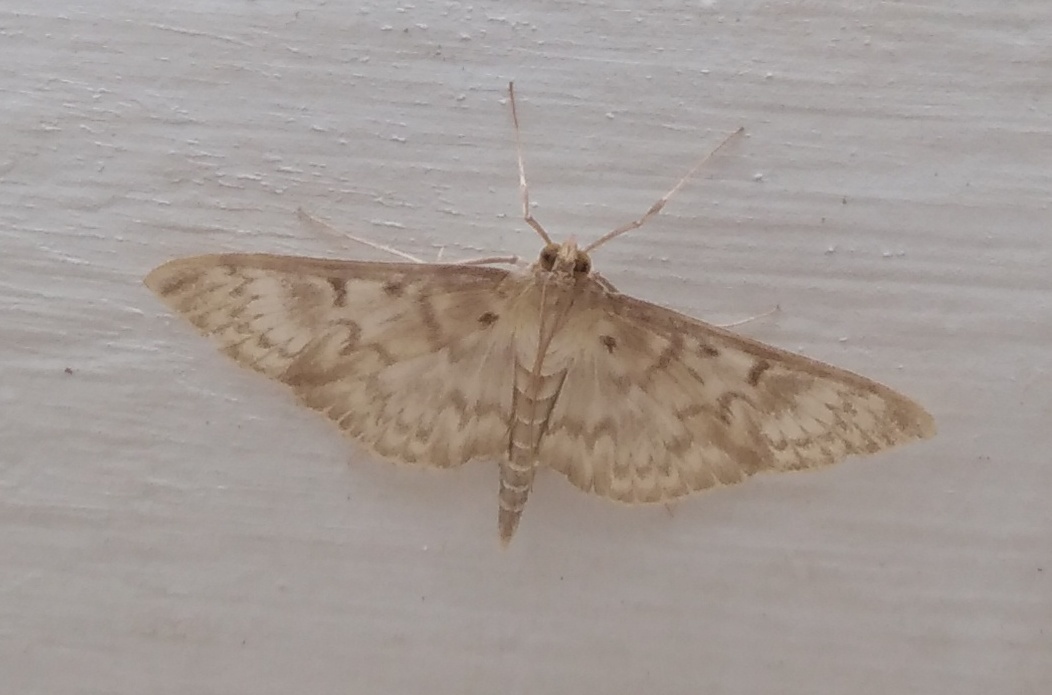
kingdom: Animalia
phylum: Arthropoda
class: Insecta
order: Lepidoptera
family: Crambidae
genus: Patania
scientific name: Patania ruralis
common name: Mother of pearl
